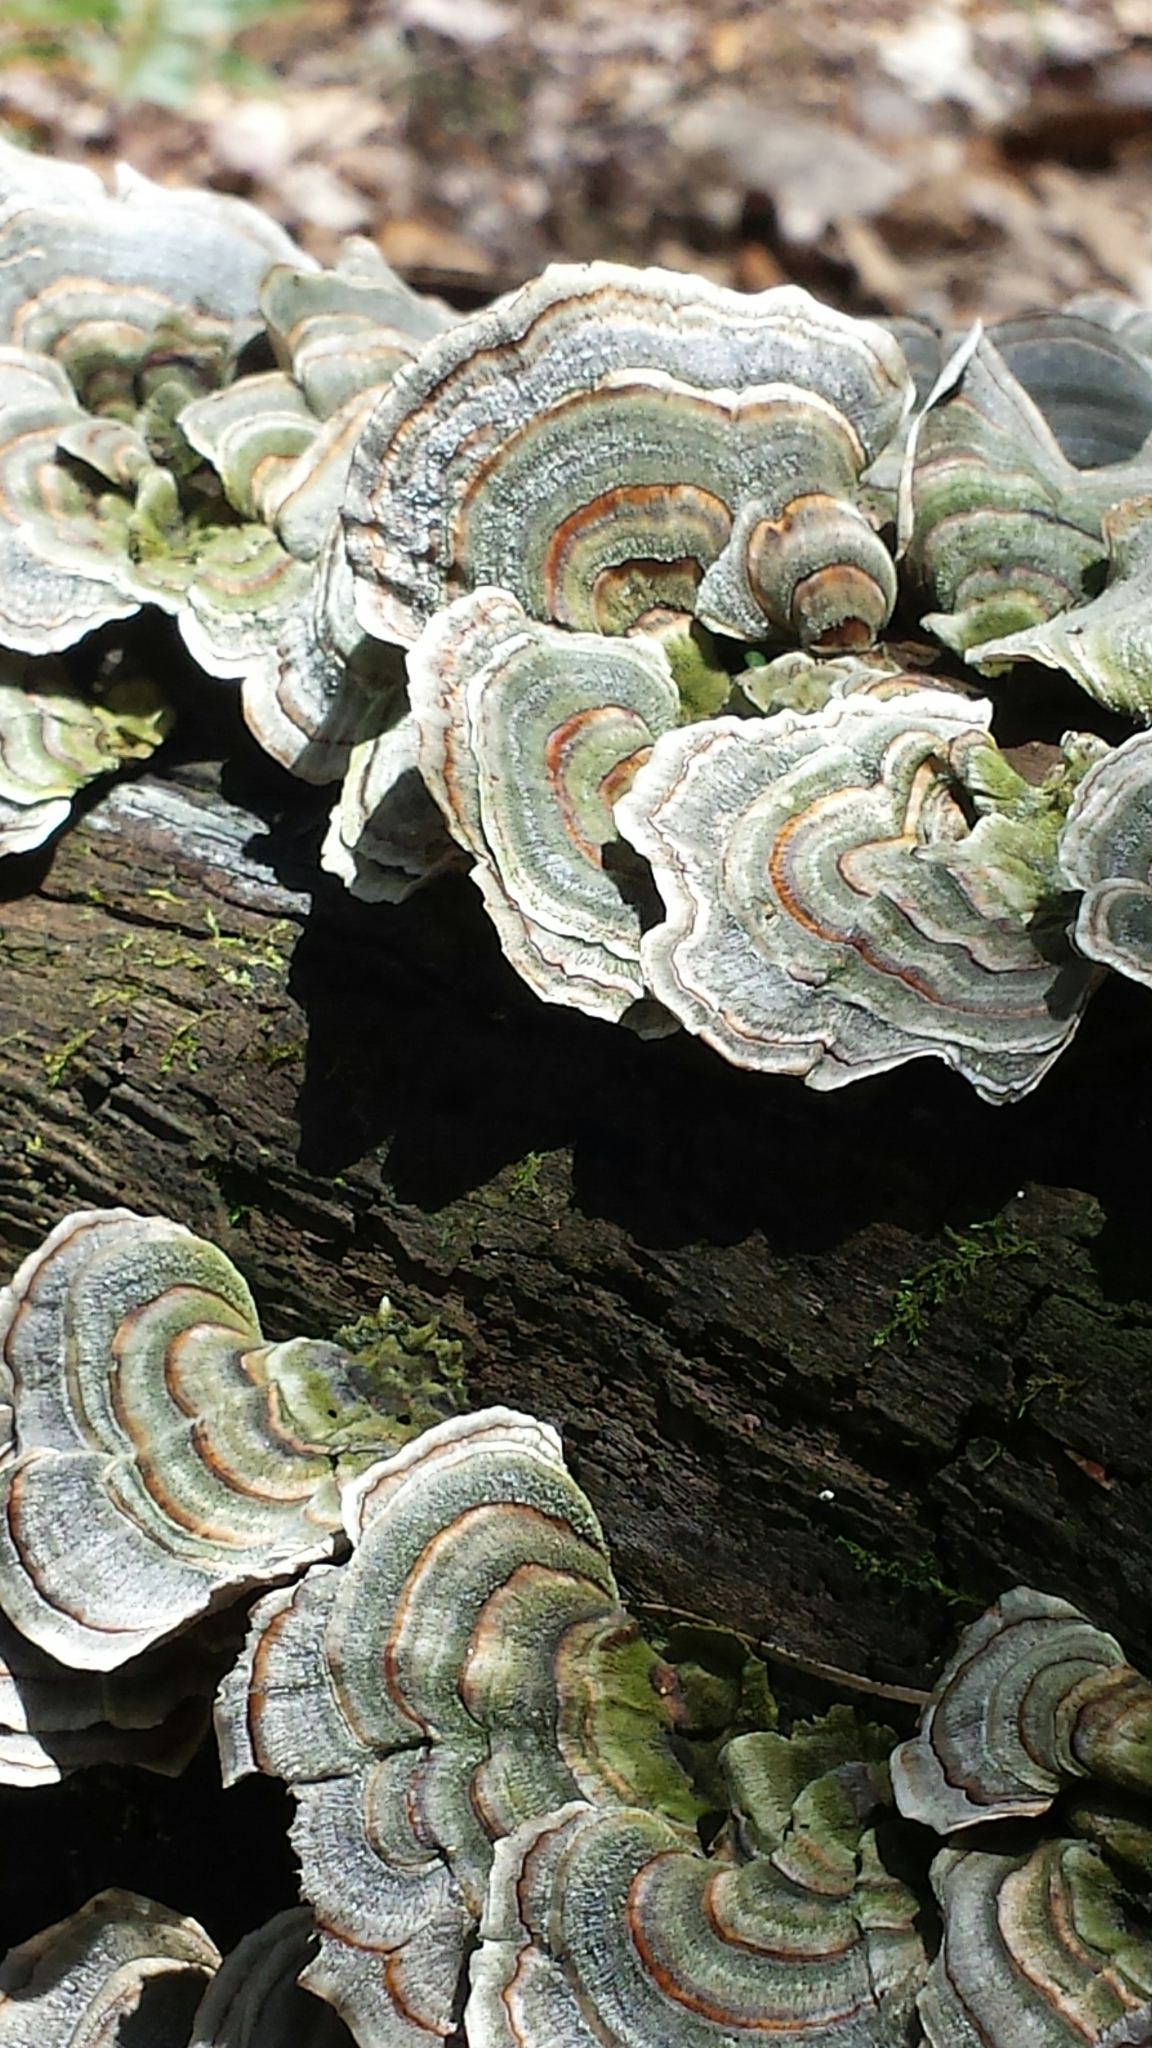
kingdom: Fungi
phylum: Basidiomycota
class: Agaricomycetes
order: Polyporales
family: Polyporaceae
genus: Trametes
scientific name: Trametes versicolor
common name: Turkeytail
